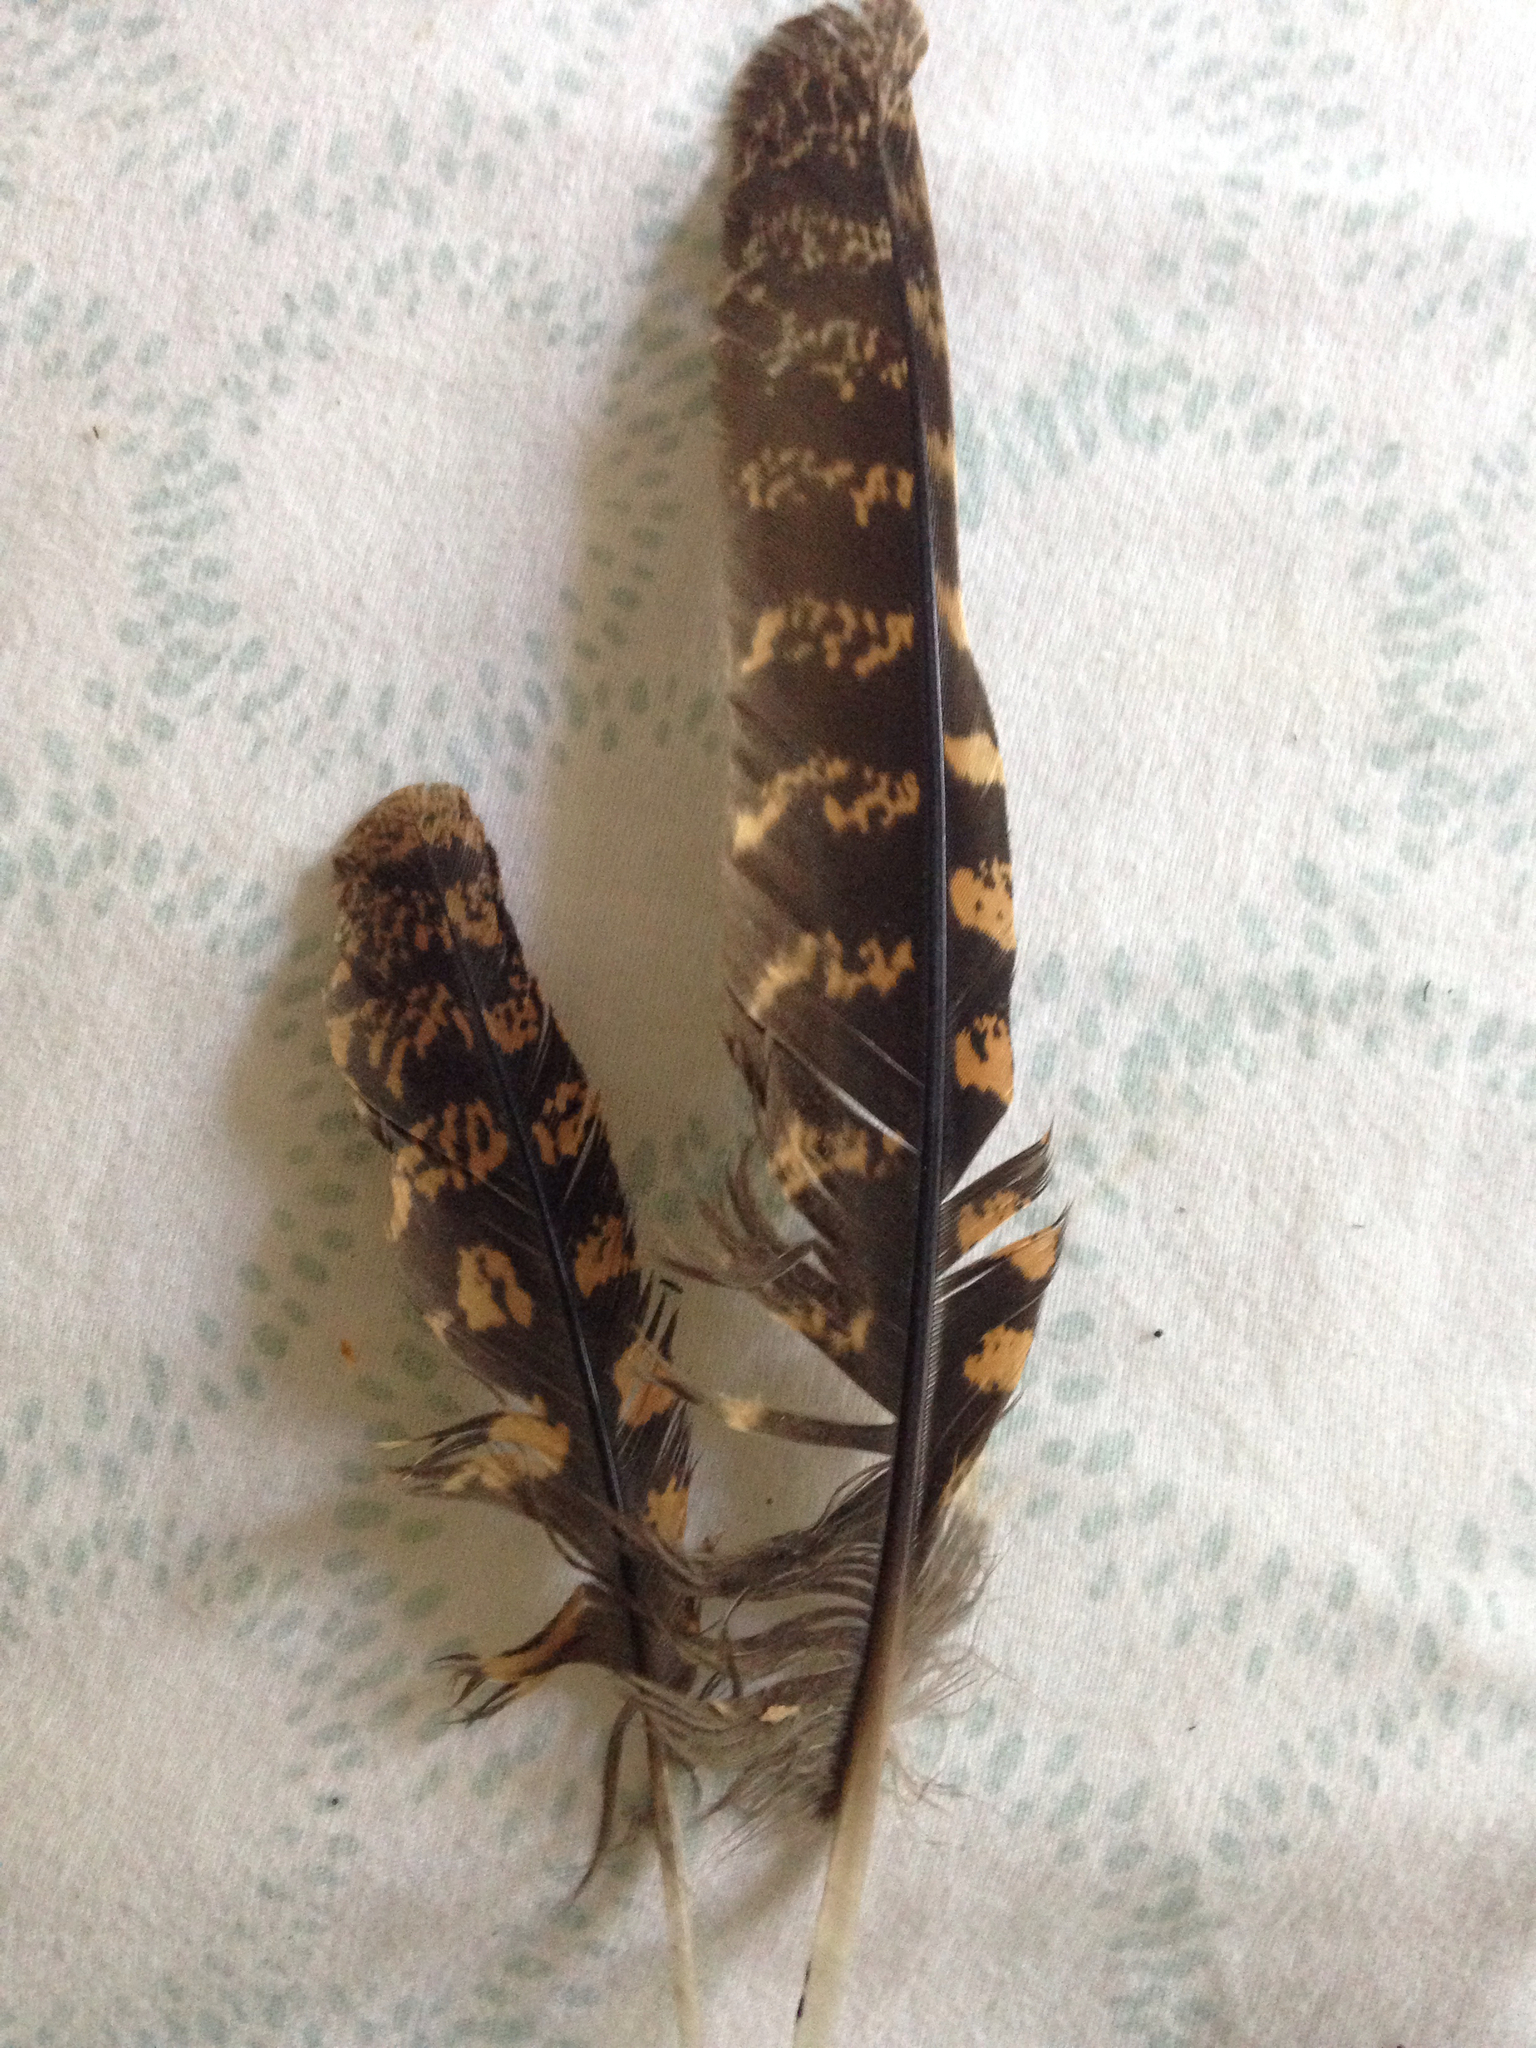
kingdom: Animalia
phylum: Chordata
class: Aves
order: Caprimulgiformes
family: Caprimulgidae
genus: Antrostomus
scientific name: Antrostomus carolinensis
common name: Chuck-will's-widow
